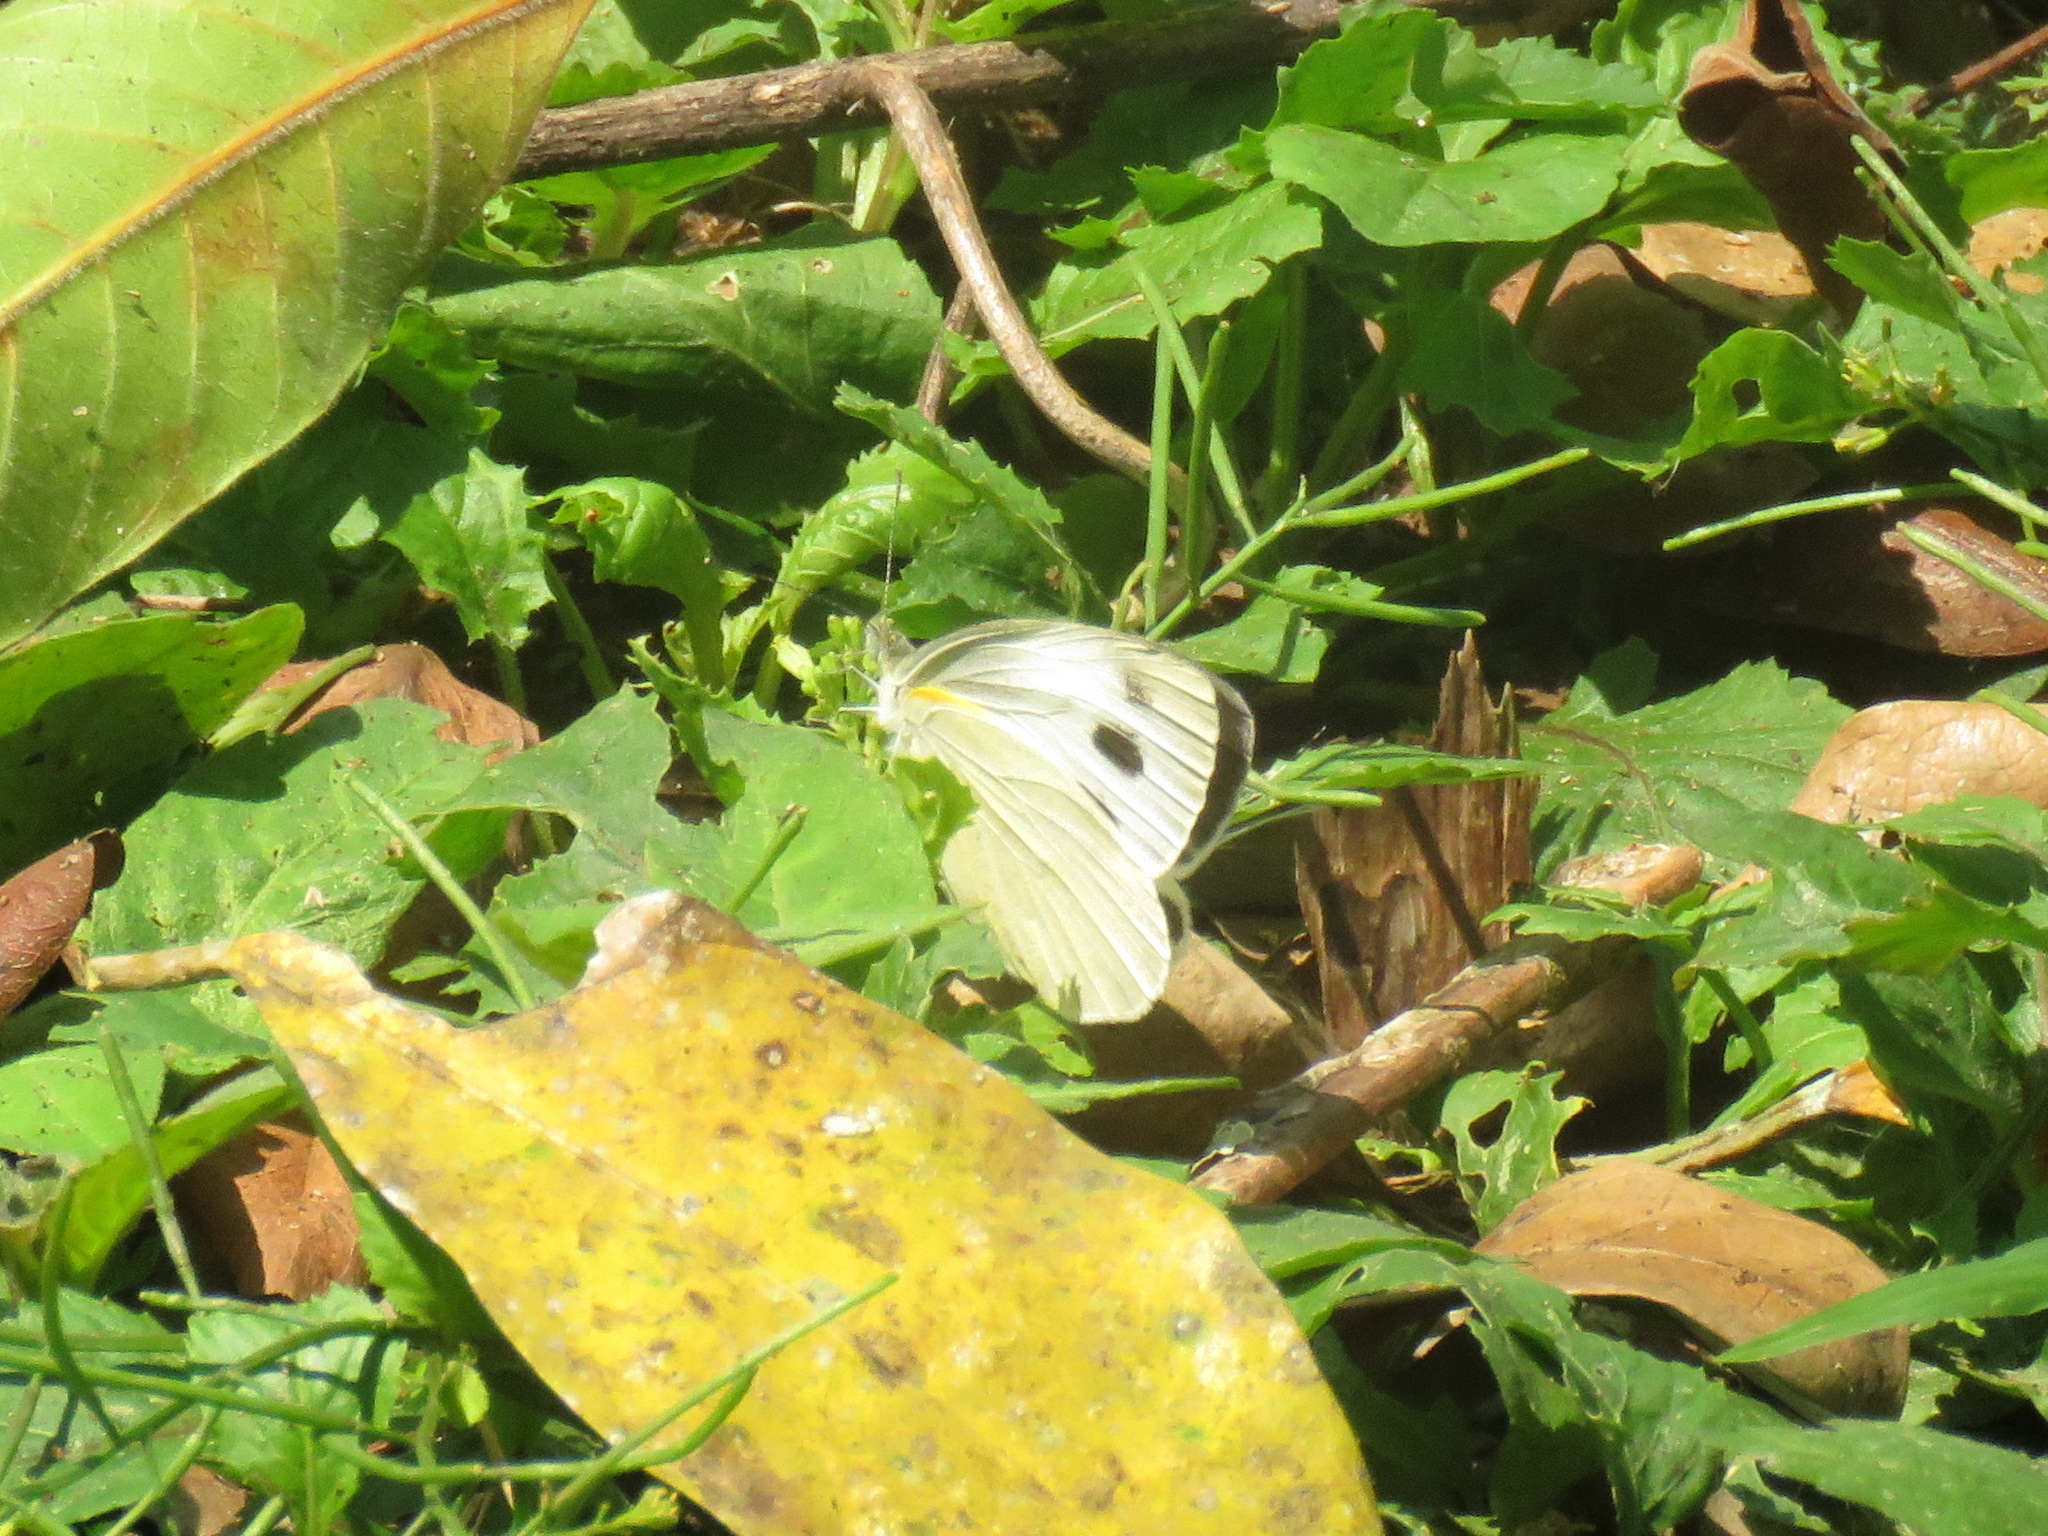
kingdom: Animalia
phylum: Arthropoda
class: Insecta
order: Lepidoptera
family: Pieridae
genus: Pieris
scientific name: Pieris canidia
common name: Indian cabbage white
